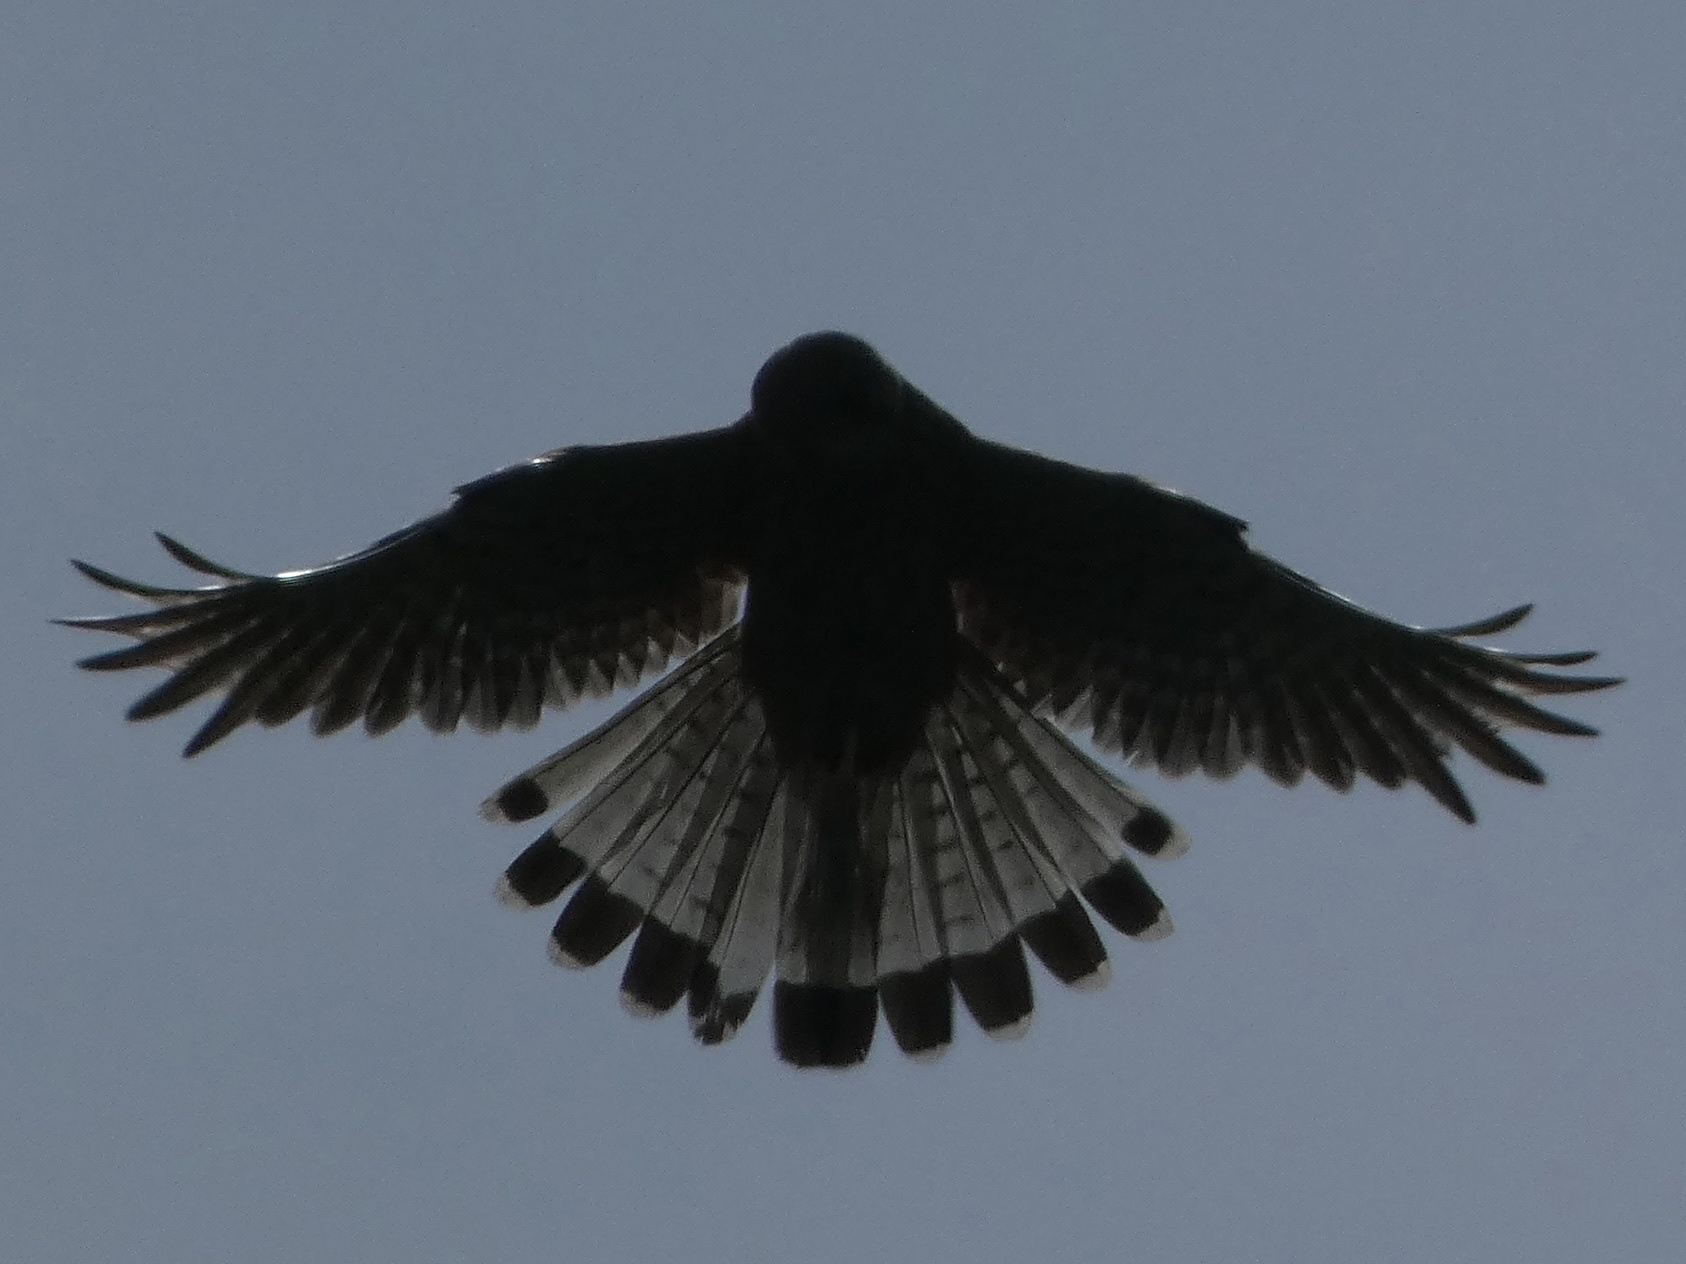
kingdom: Animalia
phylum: Chordata
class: Aves
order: Falconiformes
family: Falconidae
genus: Falco
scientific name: Falco tinnunculus
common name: Common kestrel
